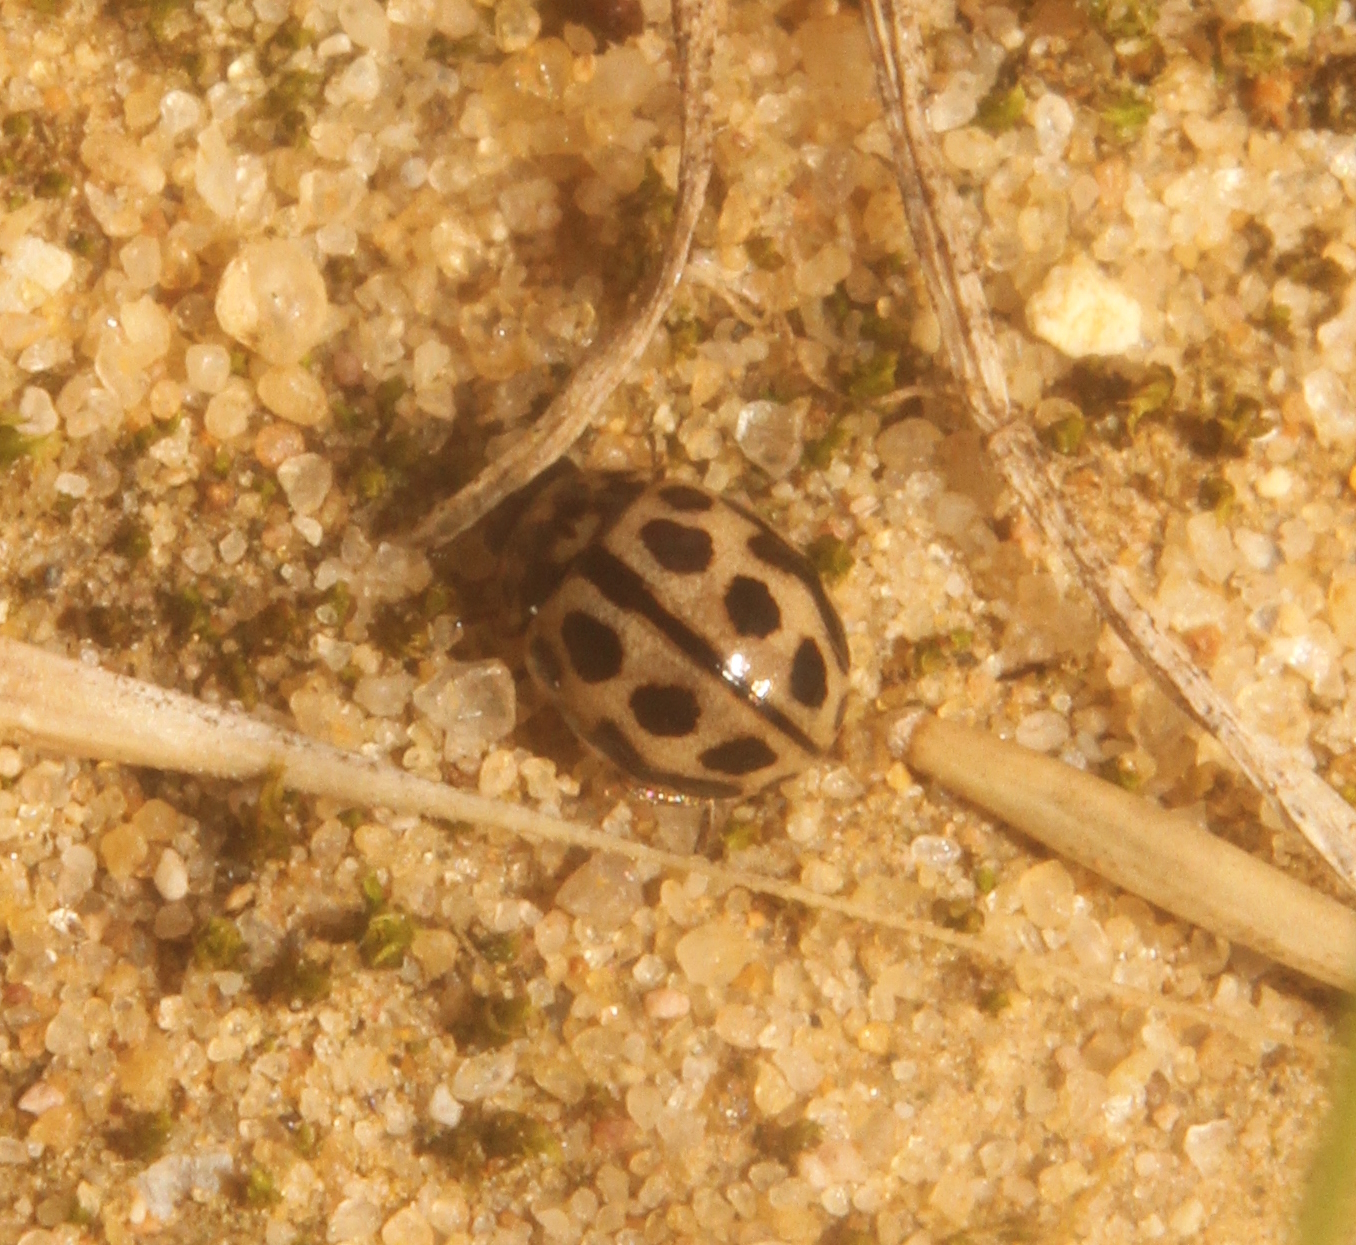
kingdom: Animalia
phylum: Arthropoda
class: Insecta
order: Coleoptera
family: Coccinellidae
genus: Tytthaspis
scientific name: Tytthaspis sedecimpunctata
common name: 16-spot ladybird
